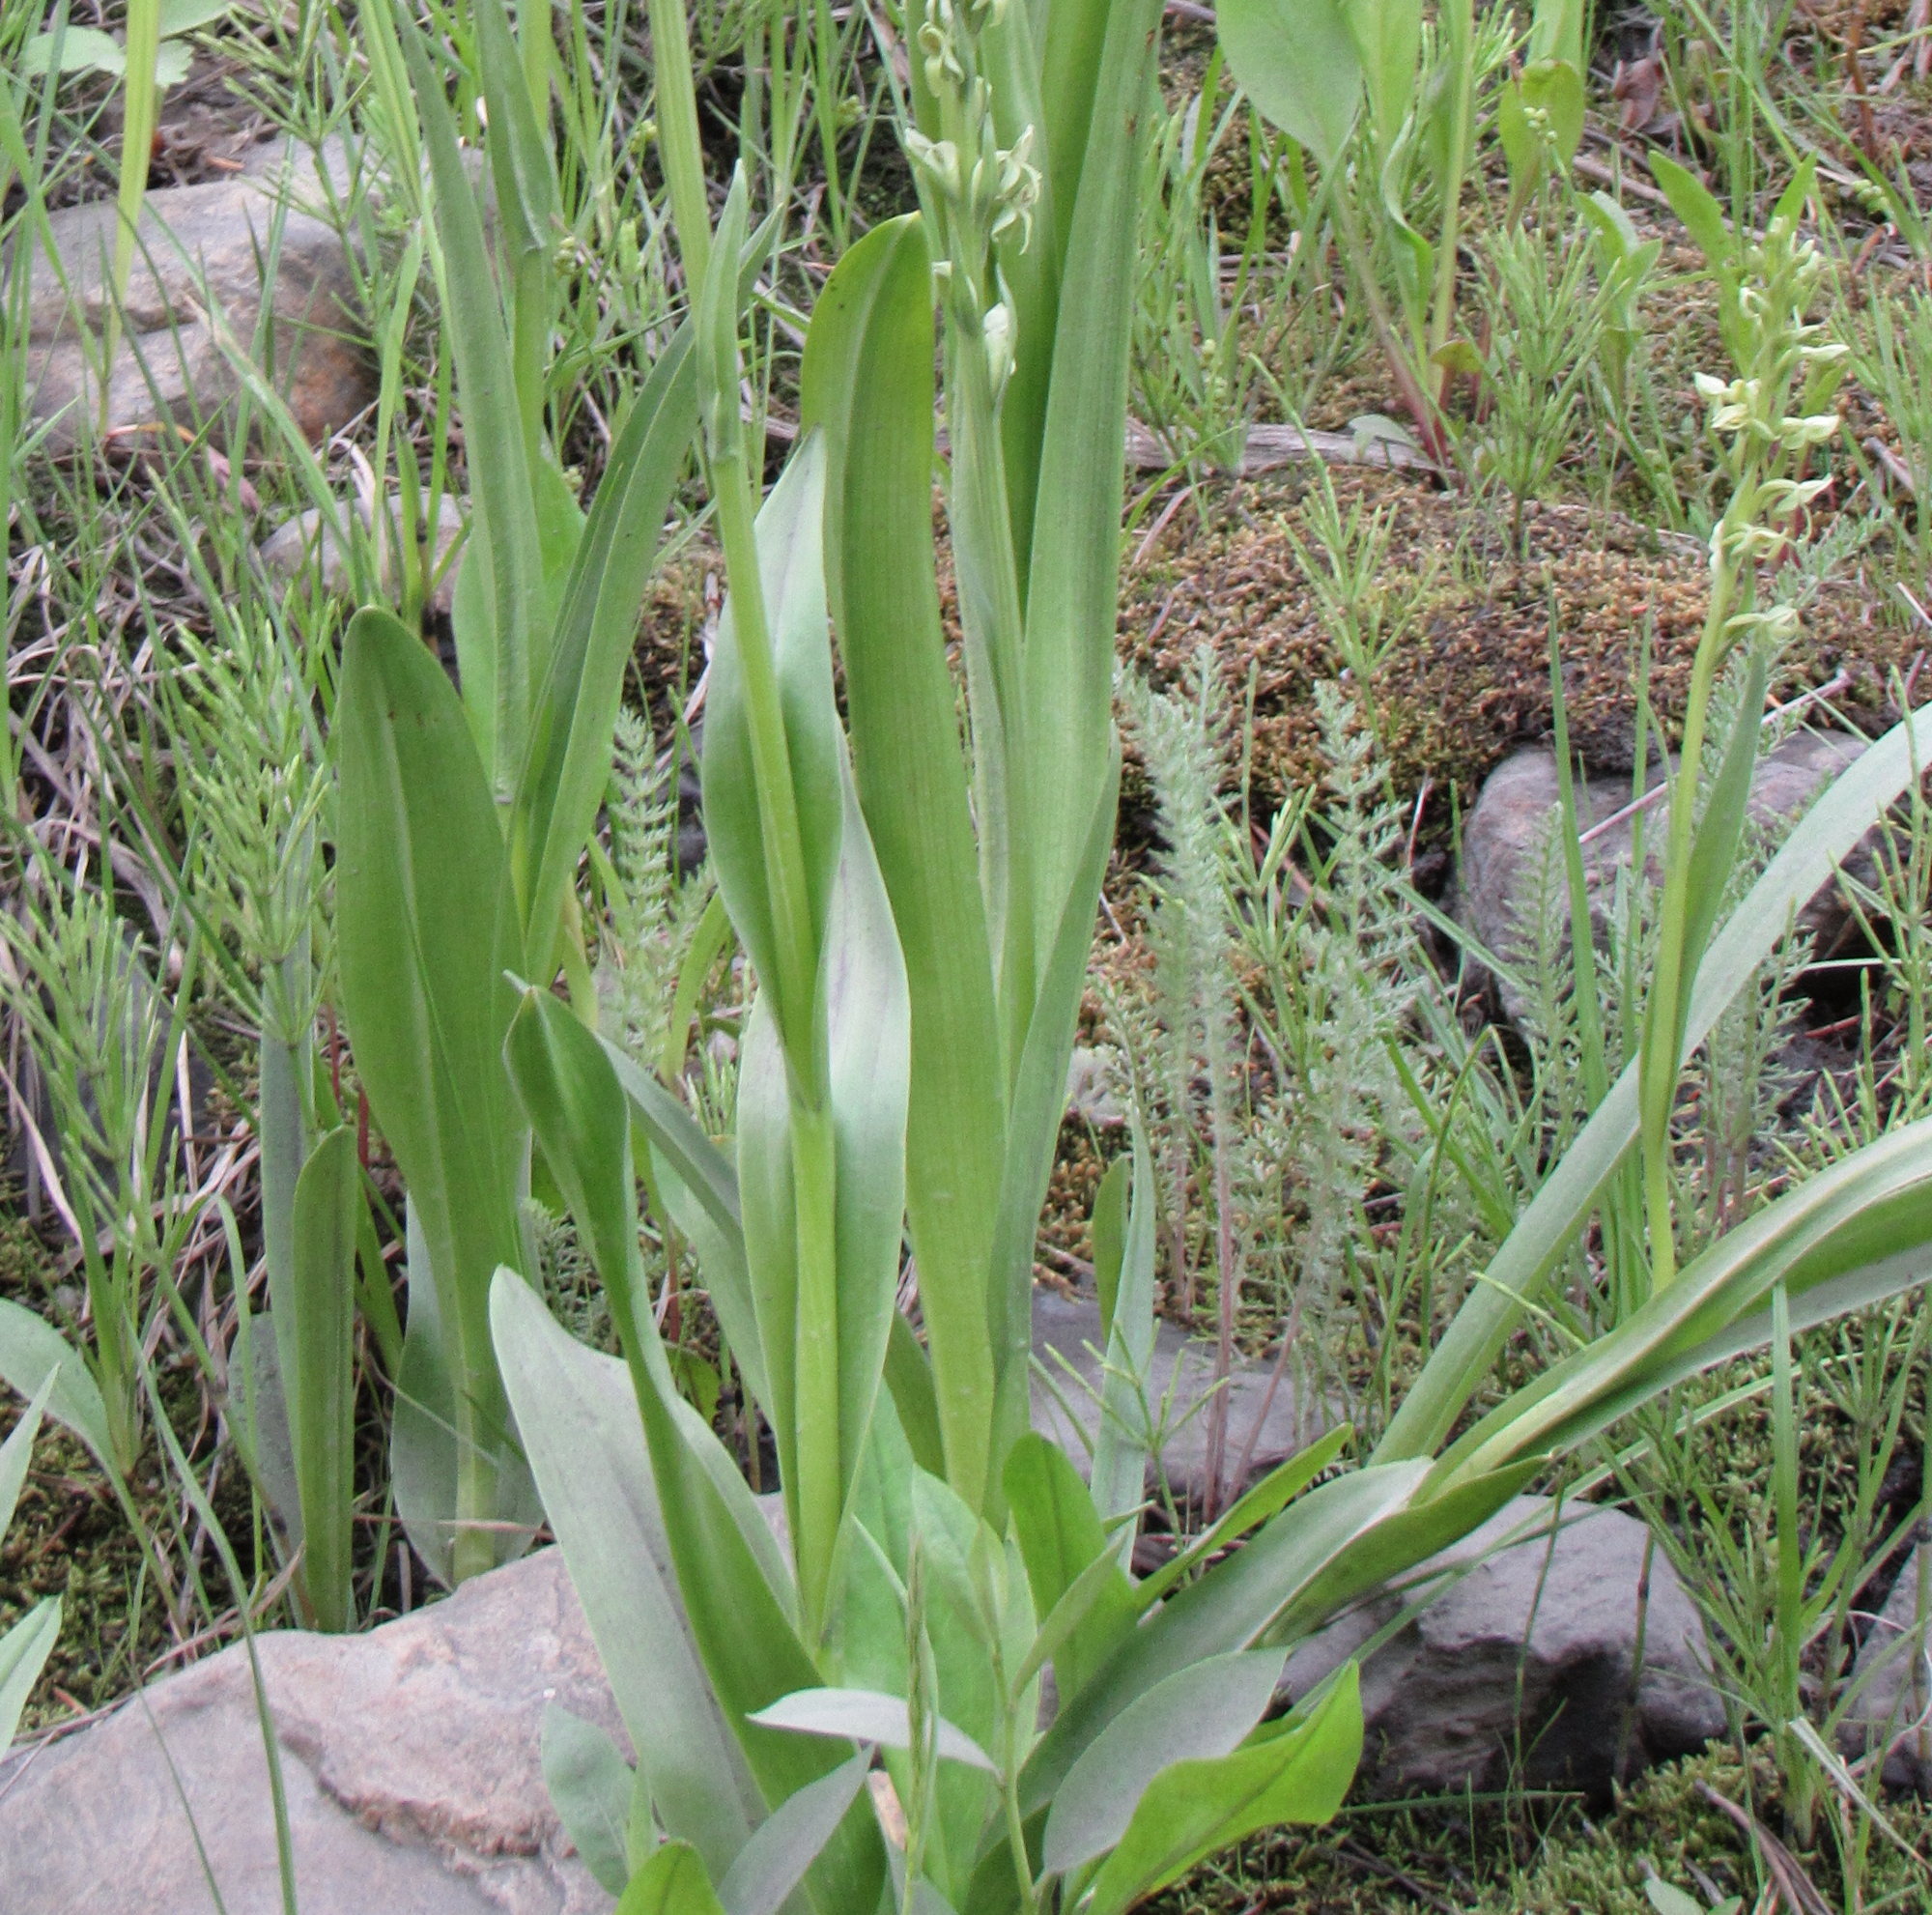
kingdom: Plantae
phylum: Tracheophyta
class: Liliopsida
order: Asparagales
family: Orchidaceae
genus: Platanthera
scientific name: Platanthera huronensis
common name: Fragrant green orchid
